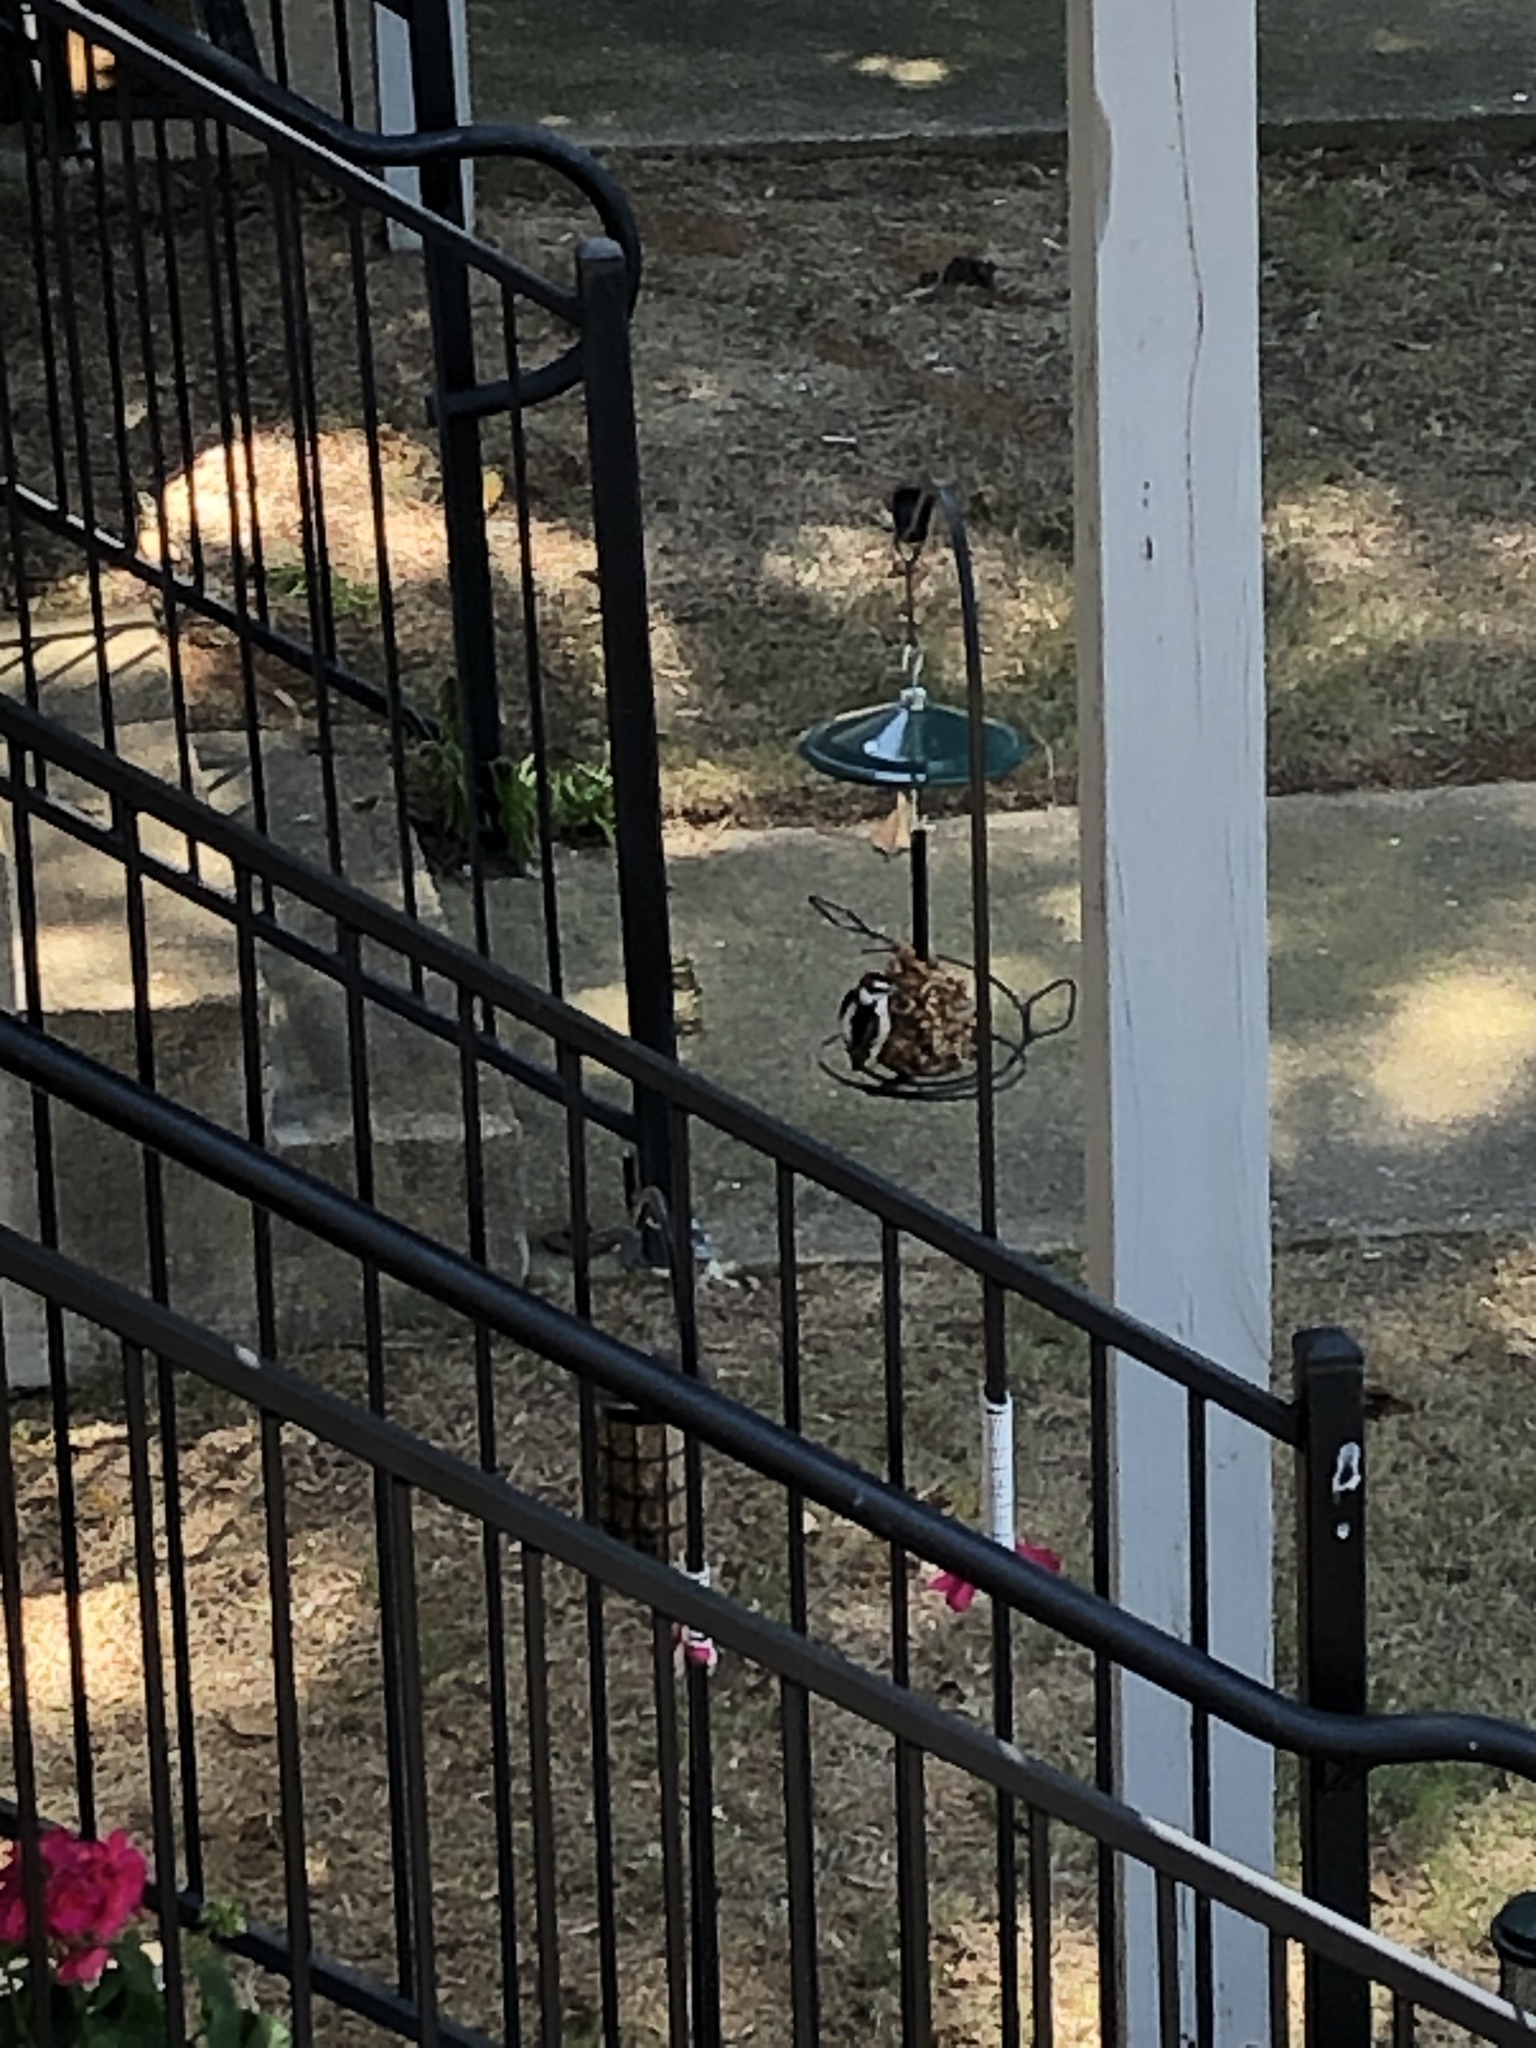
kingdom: Animalia
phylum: Chordata
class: Aves
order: Piciformes
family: Picidae
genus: Dryobates
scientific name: Dryobates pubescens
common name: Downy woodpecker
